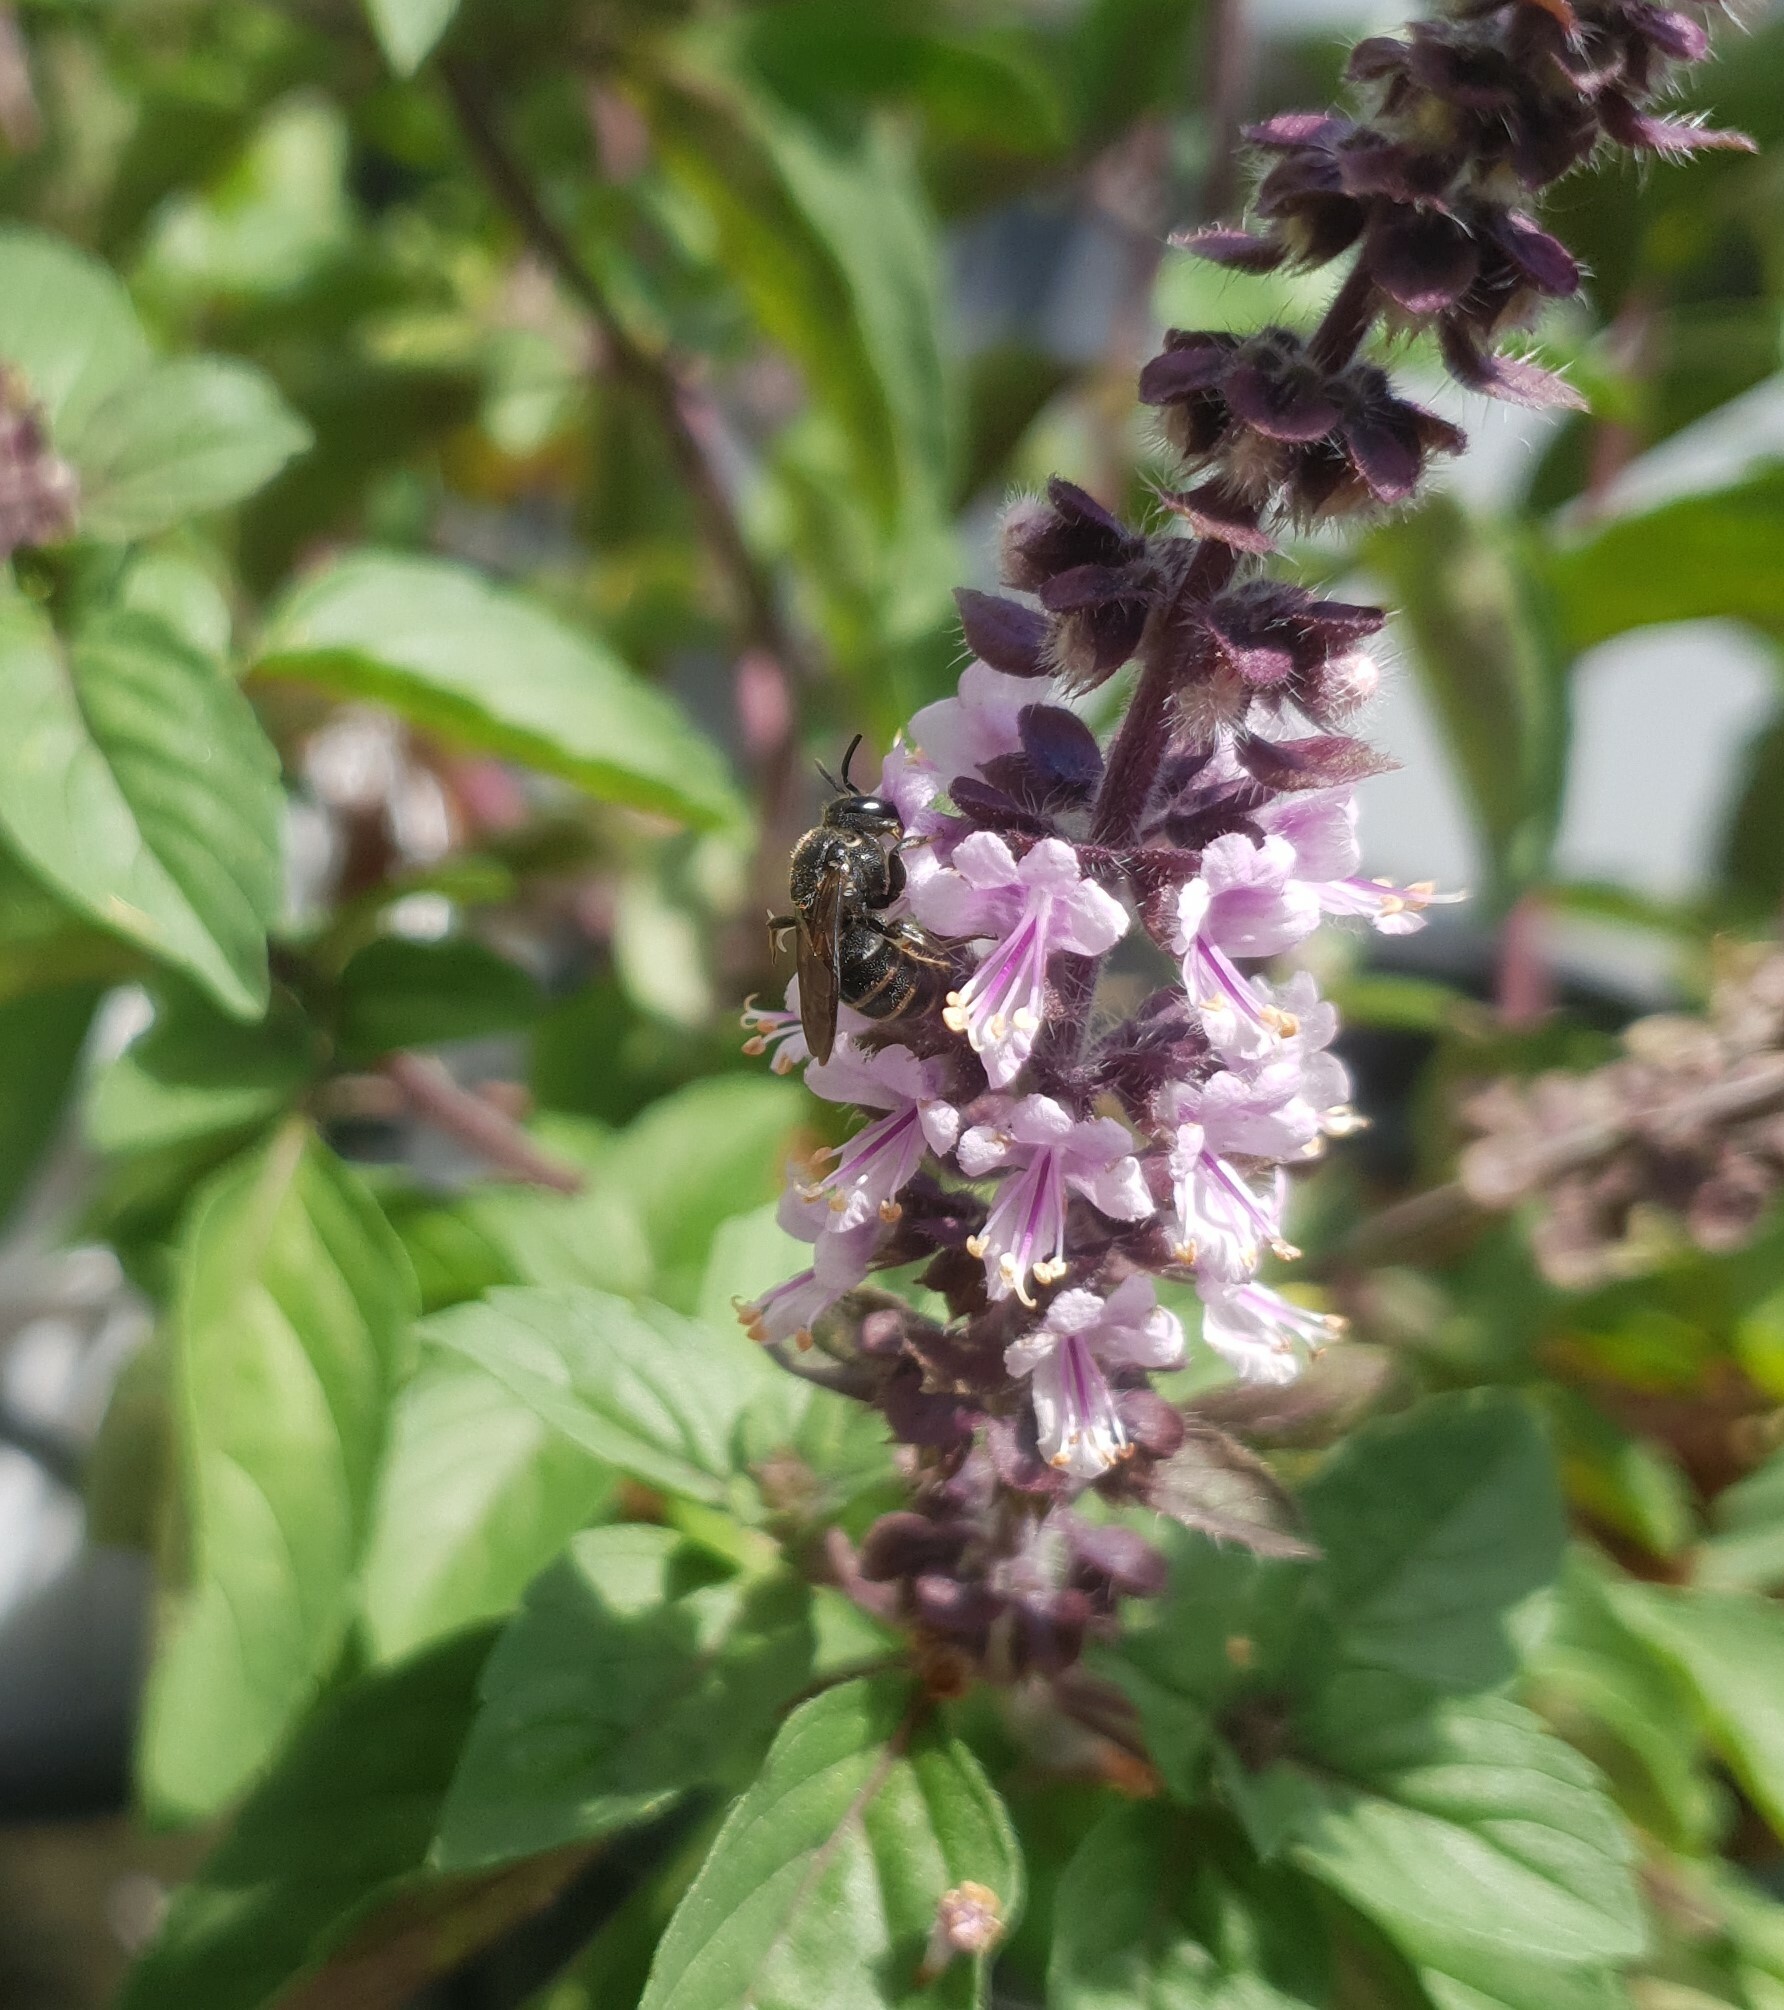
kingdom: Animalia
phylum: Arthropoda
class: Insecta
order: Hymenoptera
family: Megachilidae
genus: Stelis
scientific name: Stelis punctulatissima
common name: Banded dark bee
